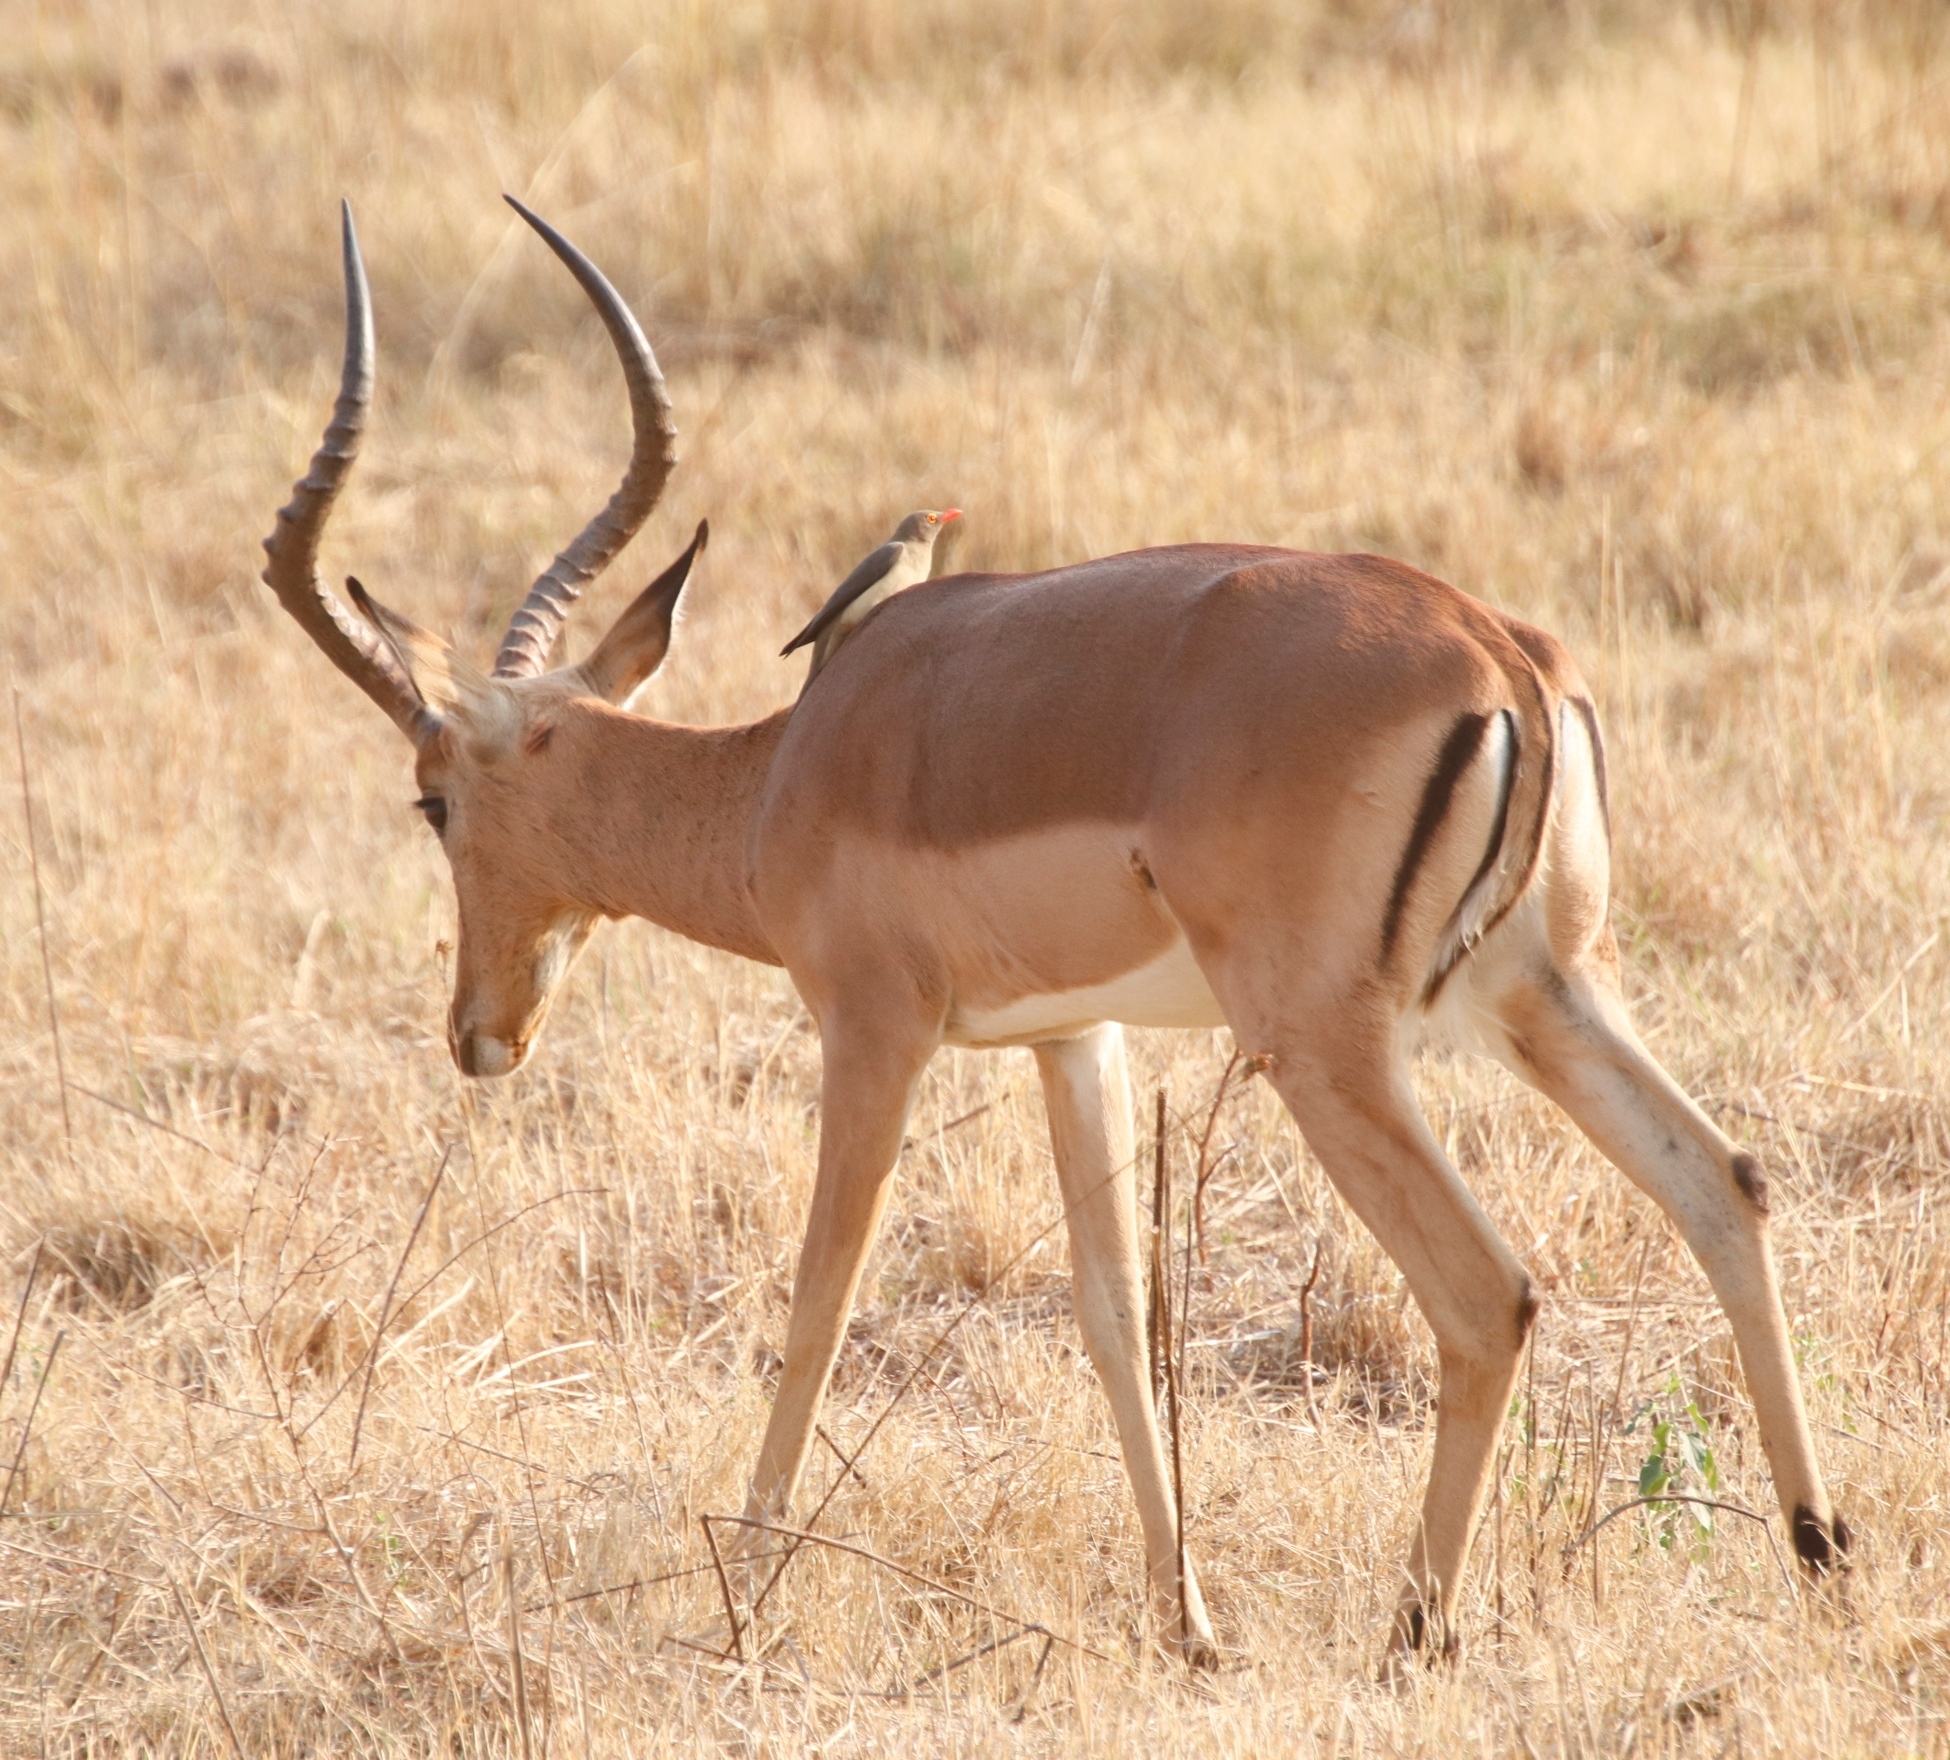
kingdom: Animalia
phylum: Chordata
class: Mammalia
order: Artiodactyla
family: Bovidae
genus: Aepyceros
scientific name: Aepyceros melampus
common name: Impala
